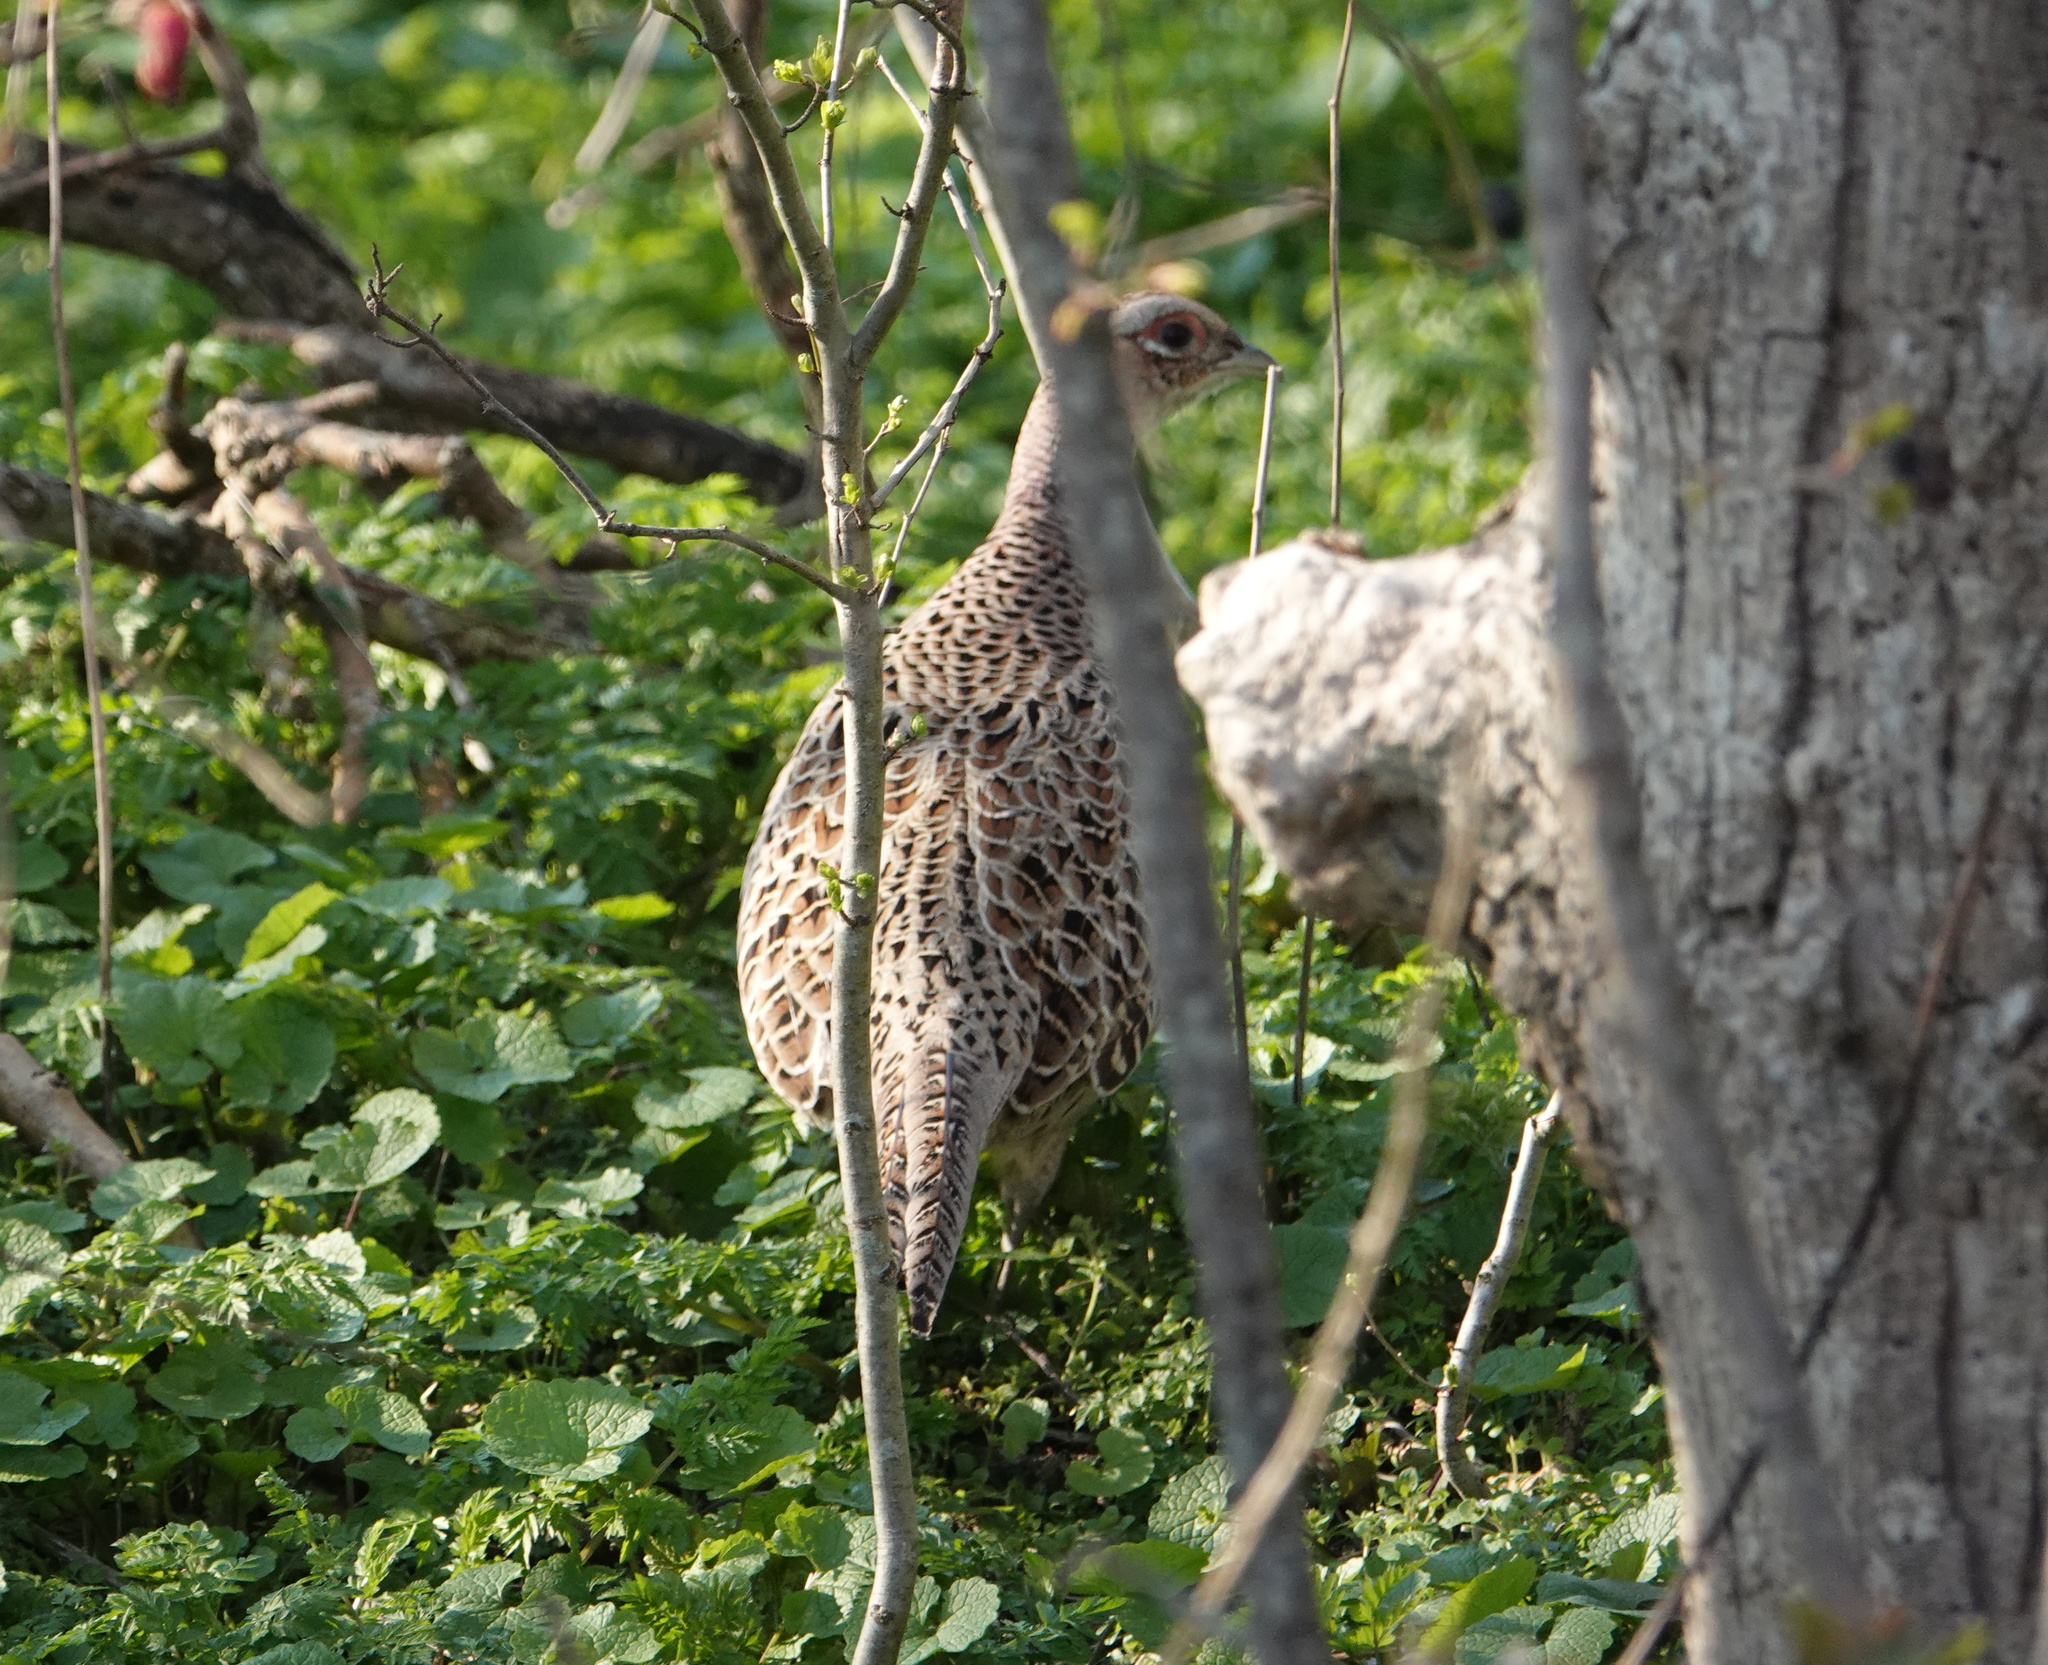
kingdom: Animalia
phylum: Chordata
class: Aves
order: Galliformes
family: Phasianidae
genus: Phasianus
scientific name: Phasianus colchicus
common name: Common pheasant
